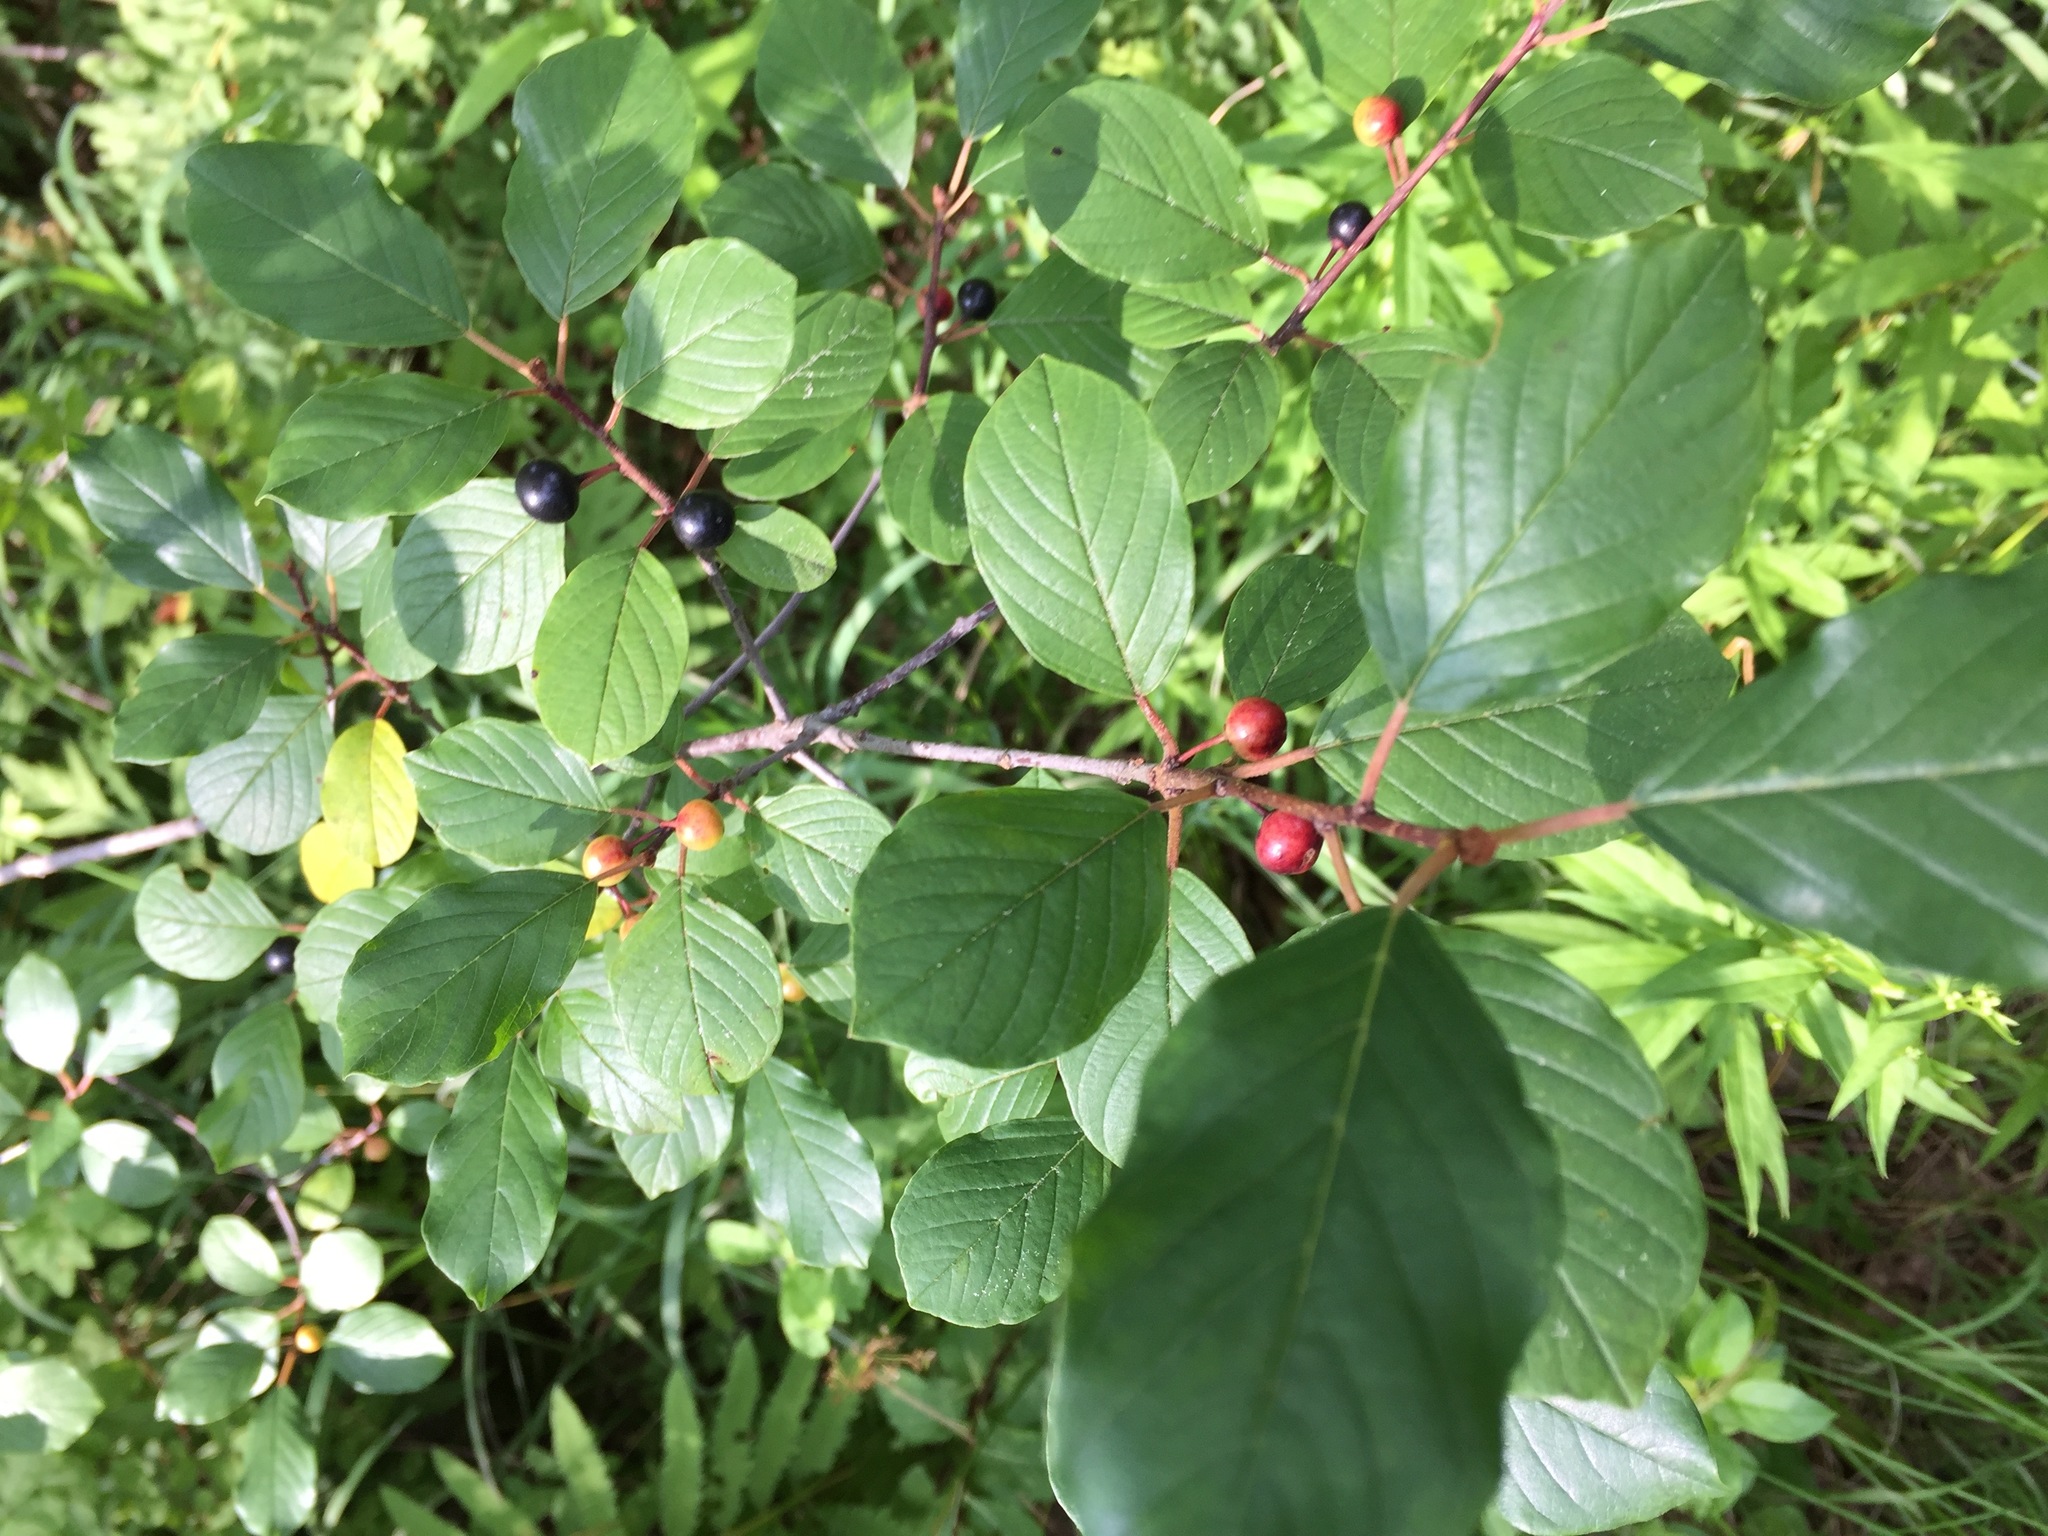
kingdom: Plantae
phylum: Tracheophyta
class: Magnoliopsida
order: Rosales
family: Rhamnaceae
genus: Frangula
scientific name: Frangula alnus
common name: Alder buckthorn
